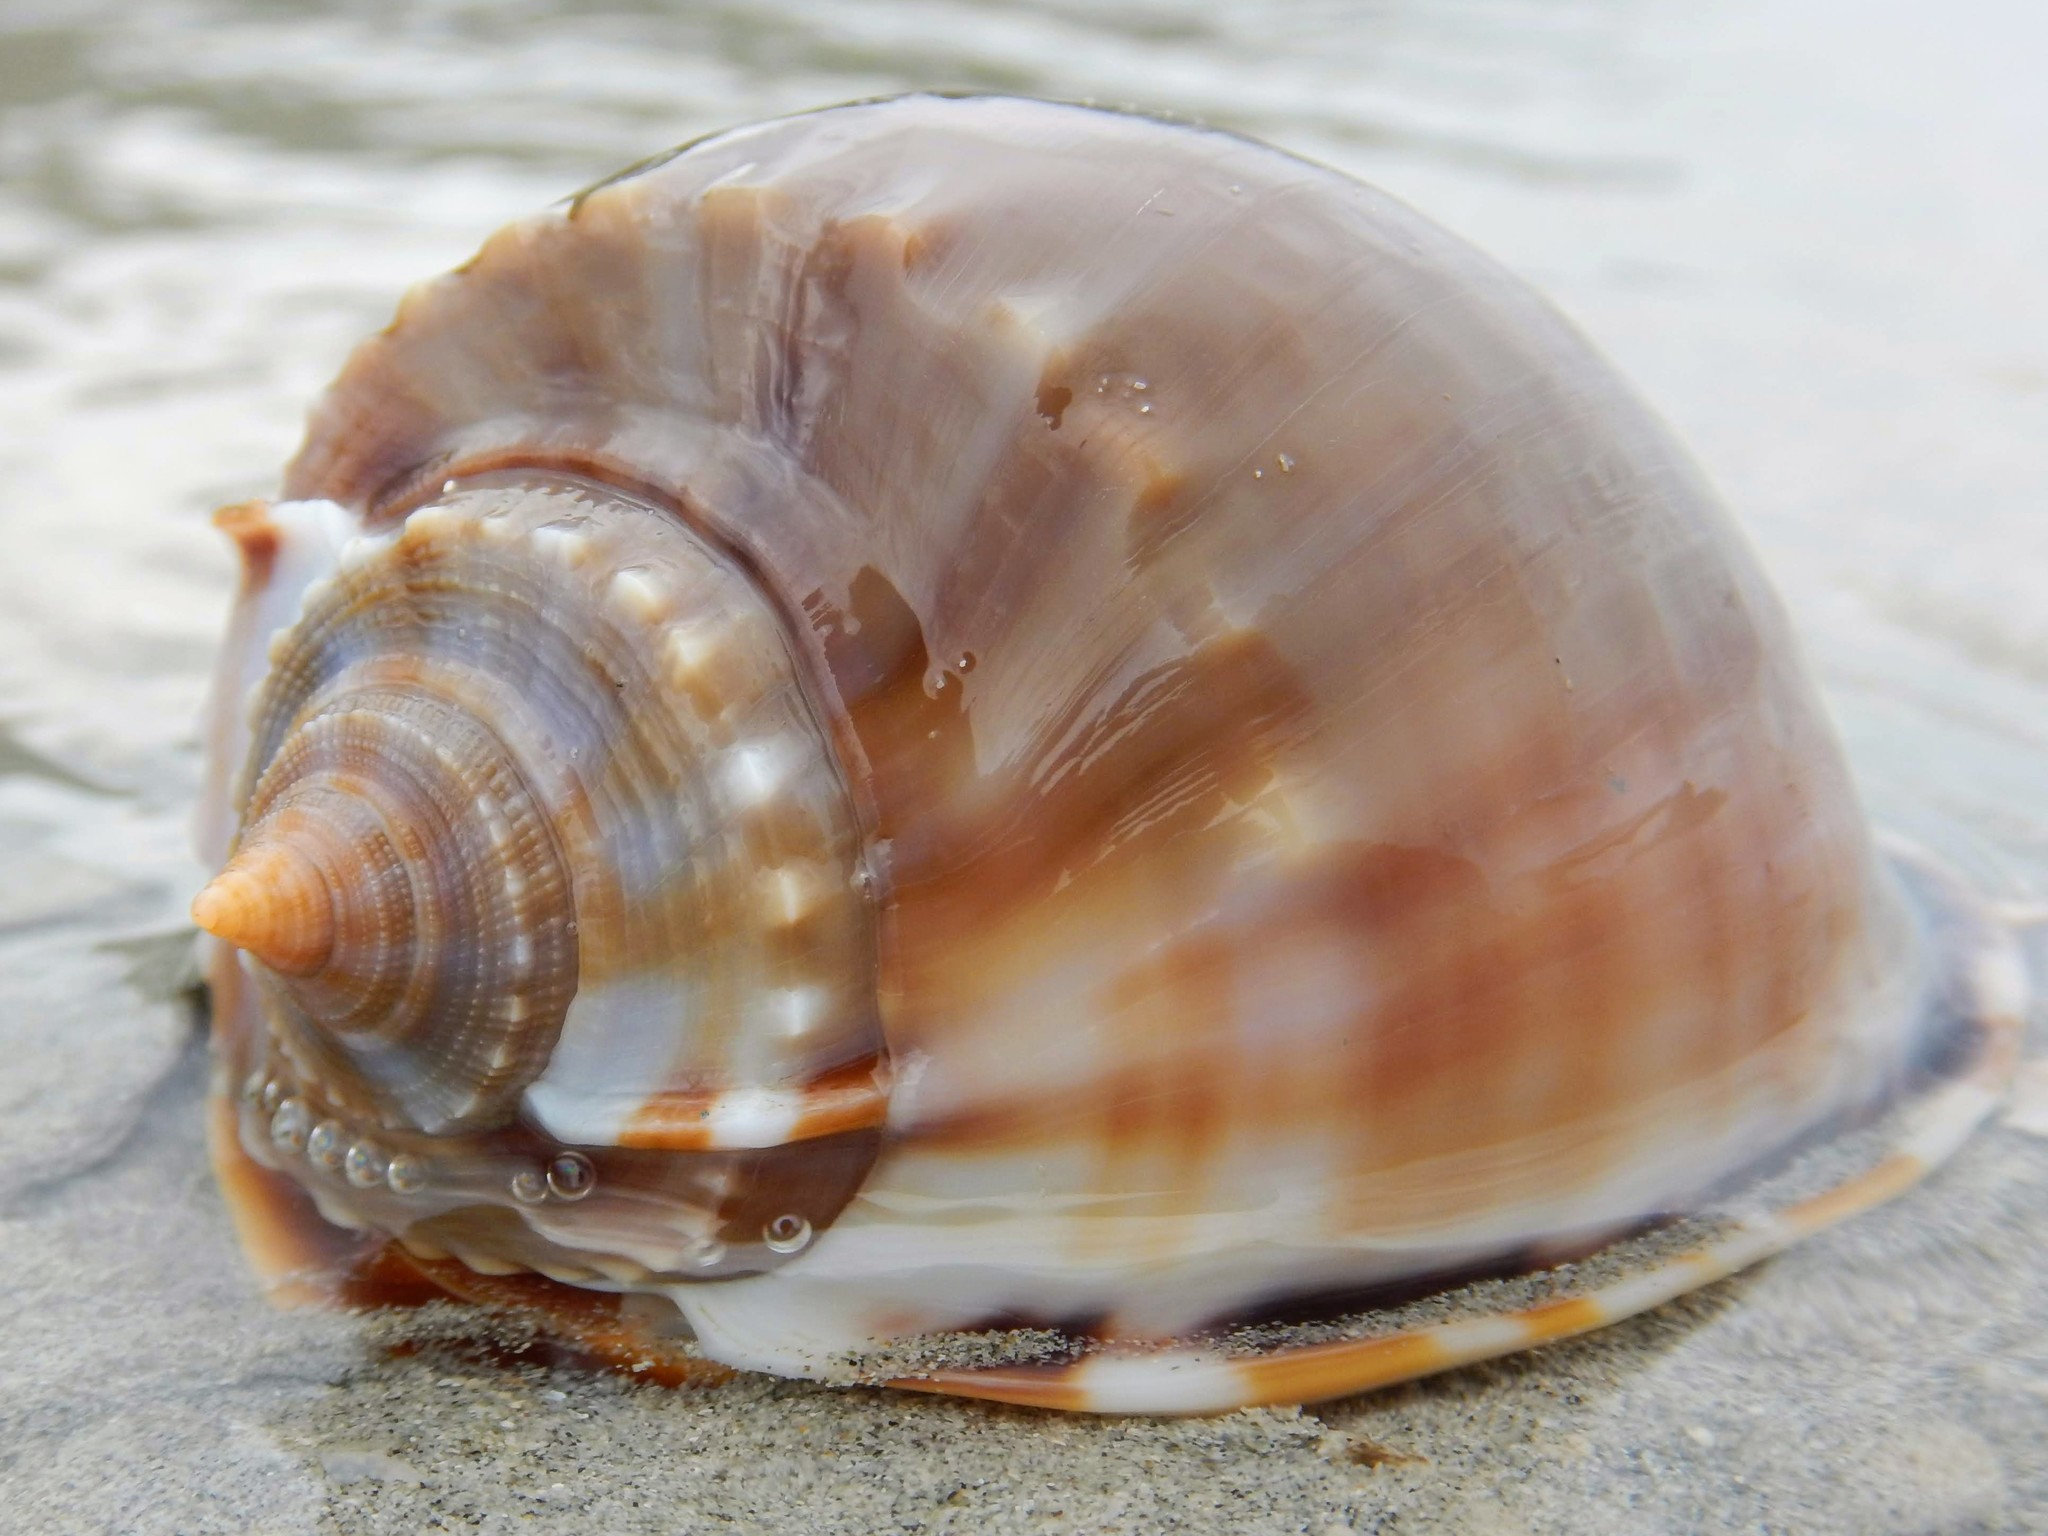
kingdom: Animalia
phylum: Mollusca
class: Gastropoda
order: Littorinimorpha
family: Cassidae
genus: Phalium
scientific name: Phalium glaucum
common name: Grey bonnet
